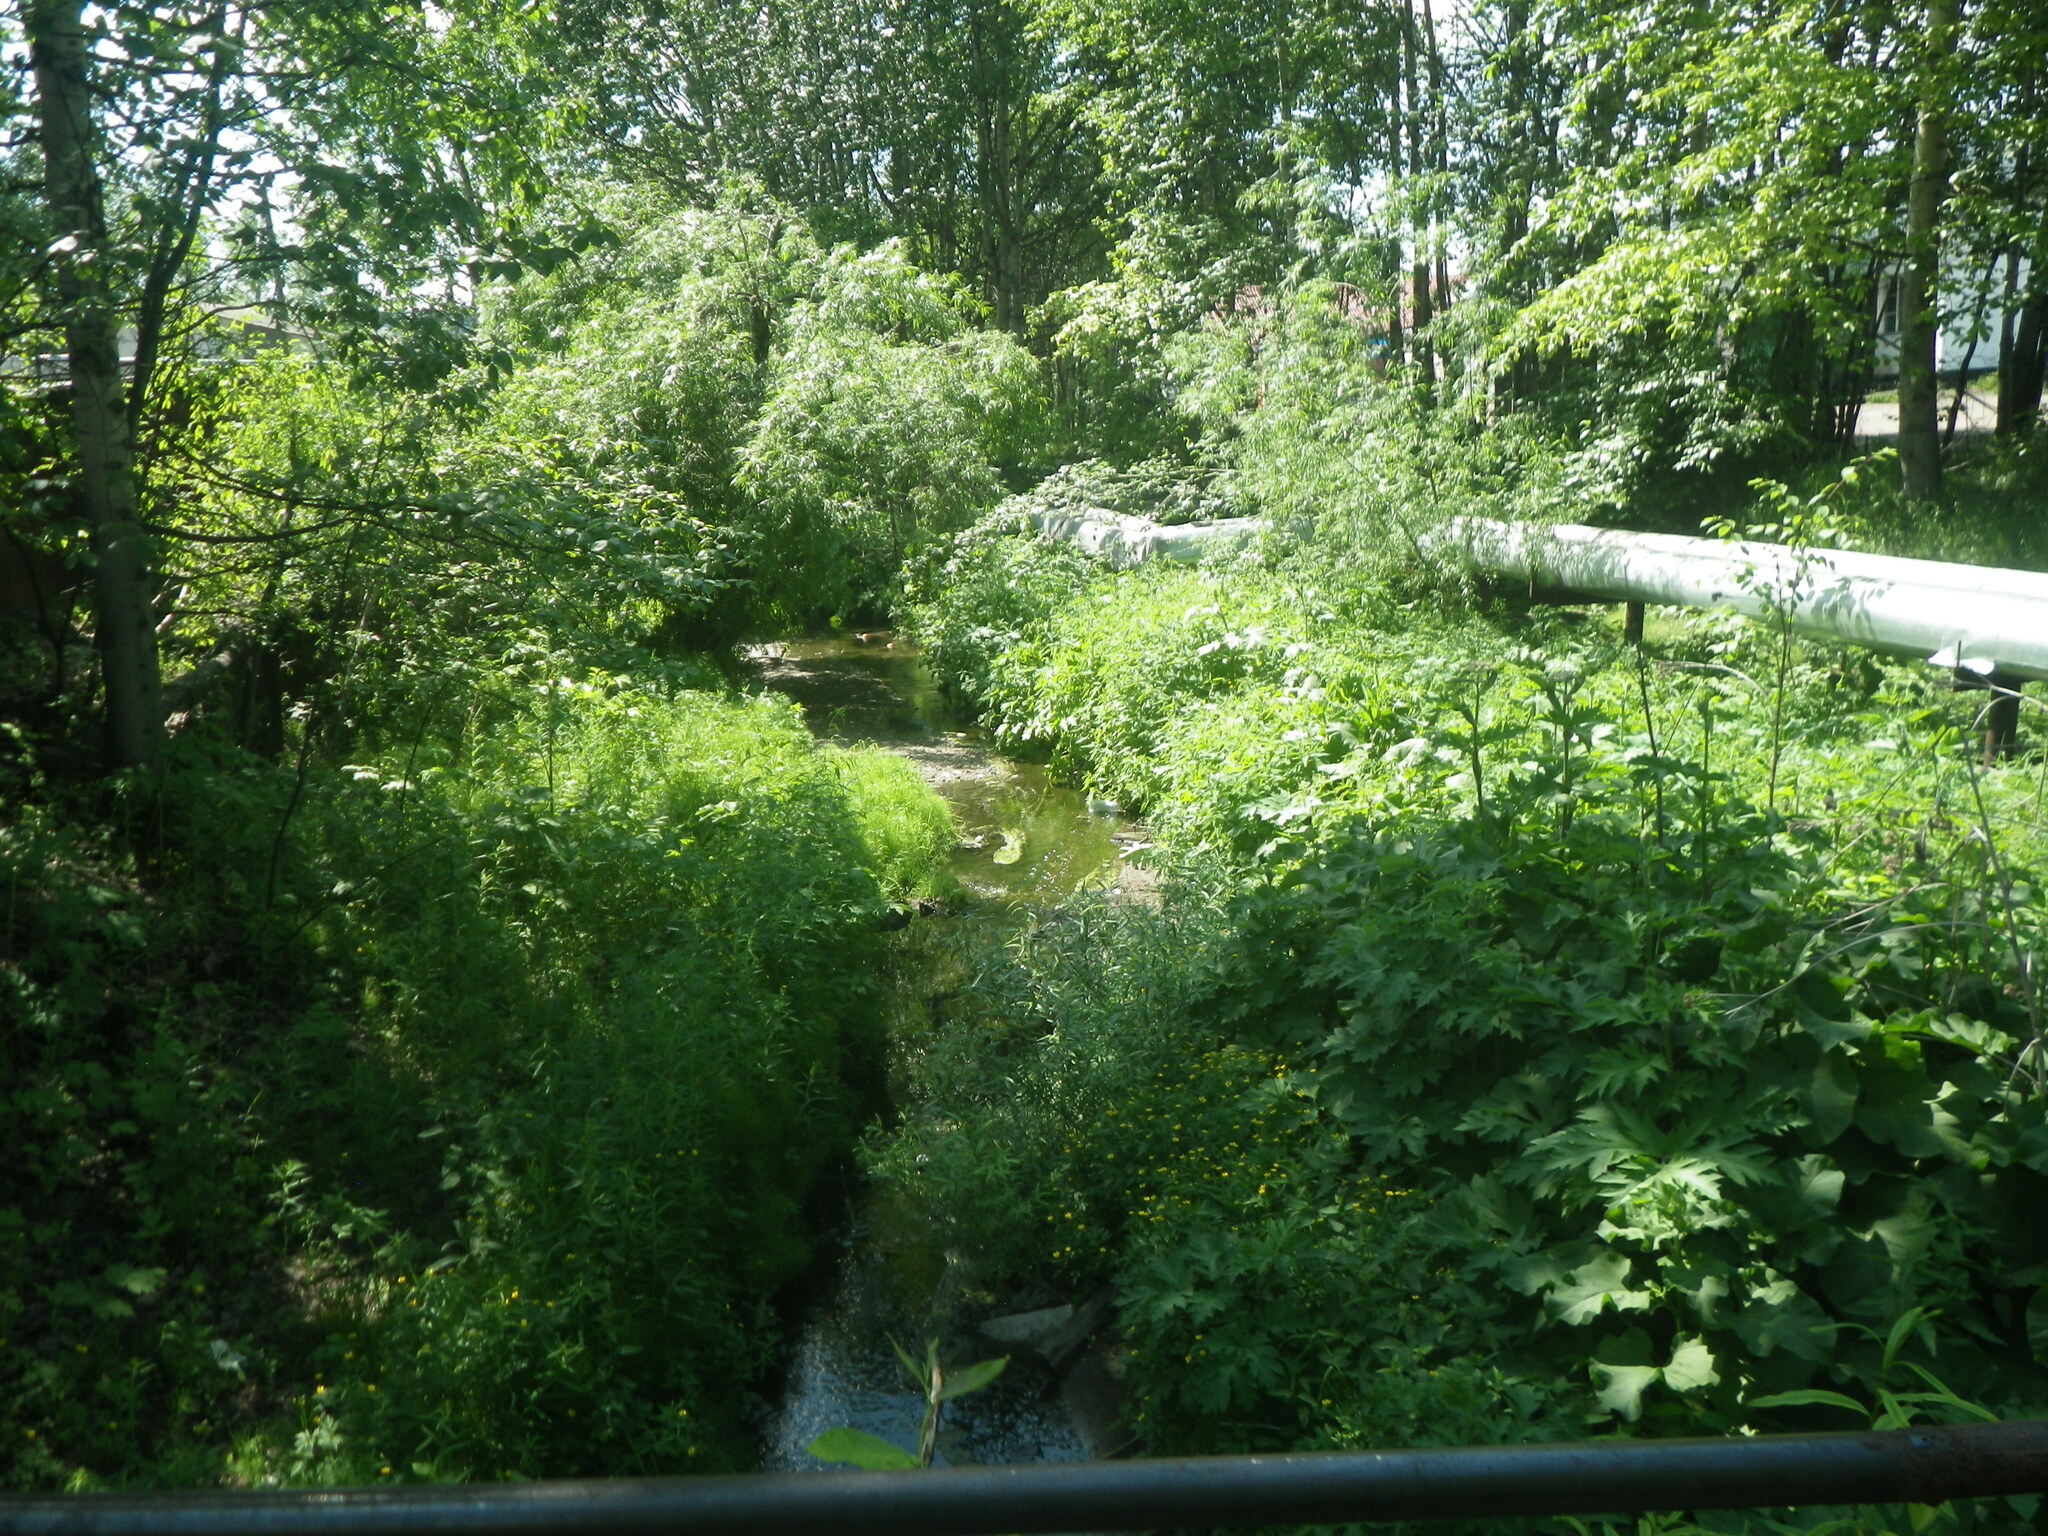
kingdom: Plantae
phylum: Tracheophyta
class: Magnoliopsida
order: Apiales
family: Apiaceae
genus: Heracleum
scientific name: Heracleum dissectum
